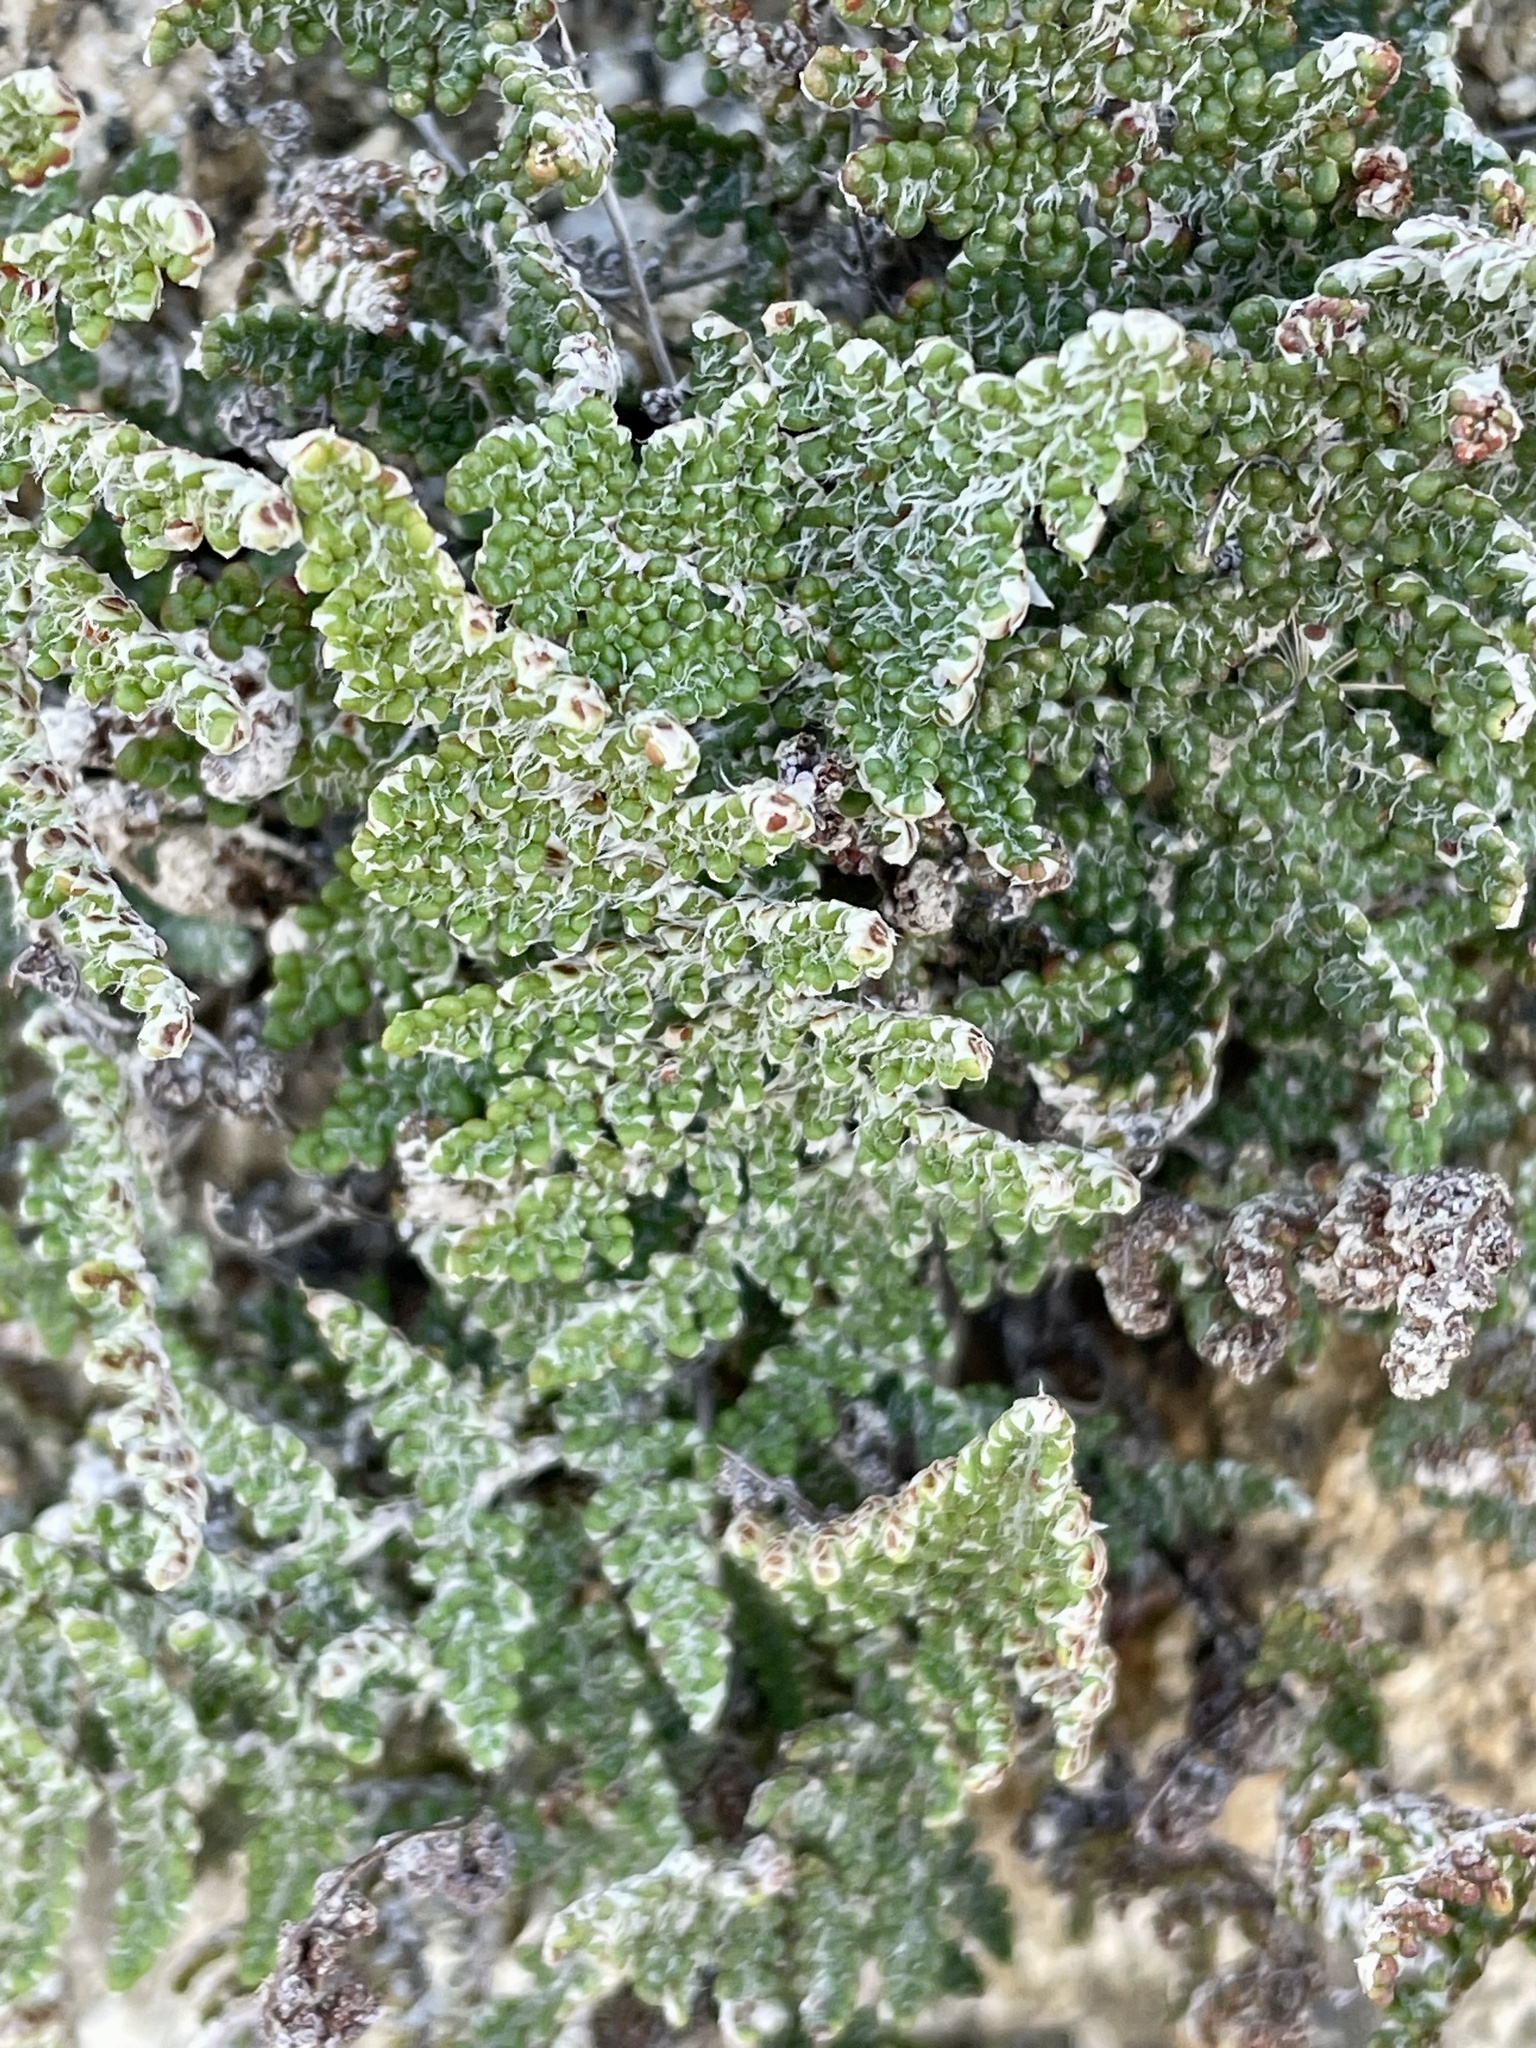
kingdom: Plantae
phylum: Tracheophyta
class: Polypodiopsida
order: Polypodiales
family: Pteridaceae
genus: Myriopteris
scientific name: Myriopteris covillei
